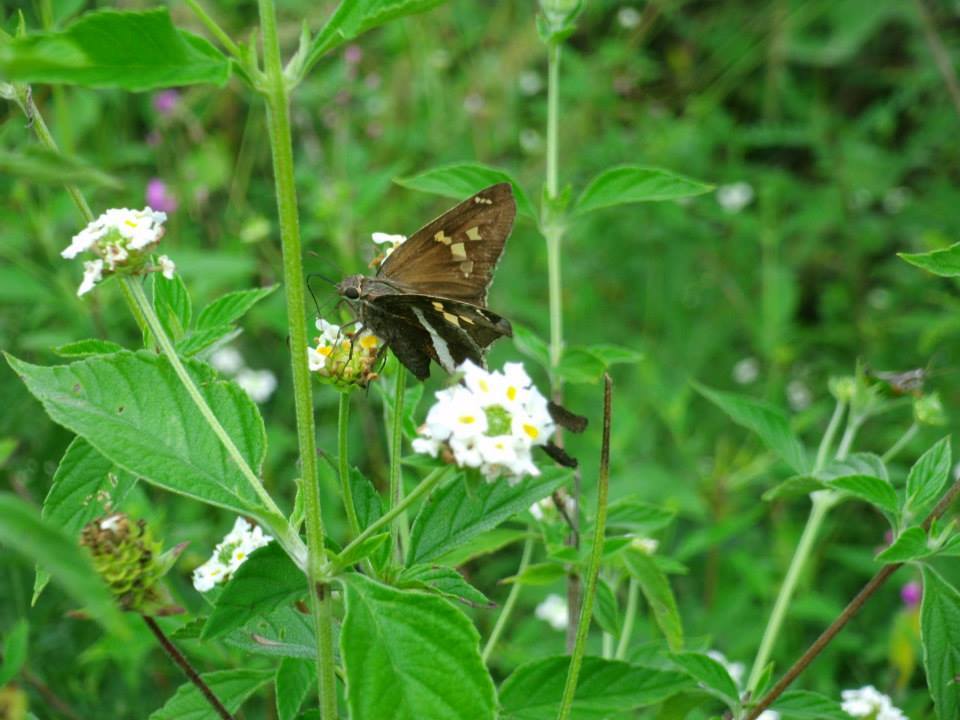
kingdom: Animalia
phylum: Arthropoda
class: Insecta
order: Lepidoptera
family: Hesperiidae
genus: Chioides
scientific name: Chioides catillus
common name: Silverbanded skipper
